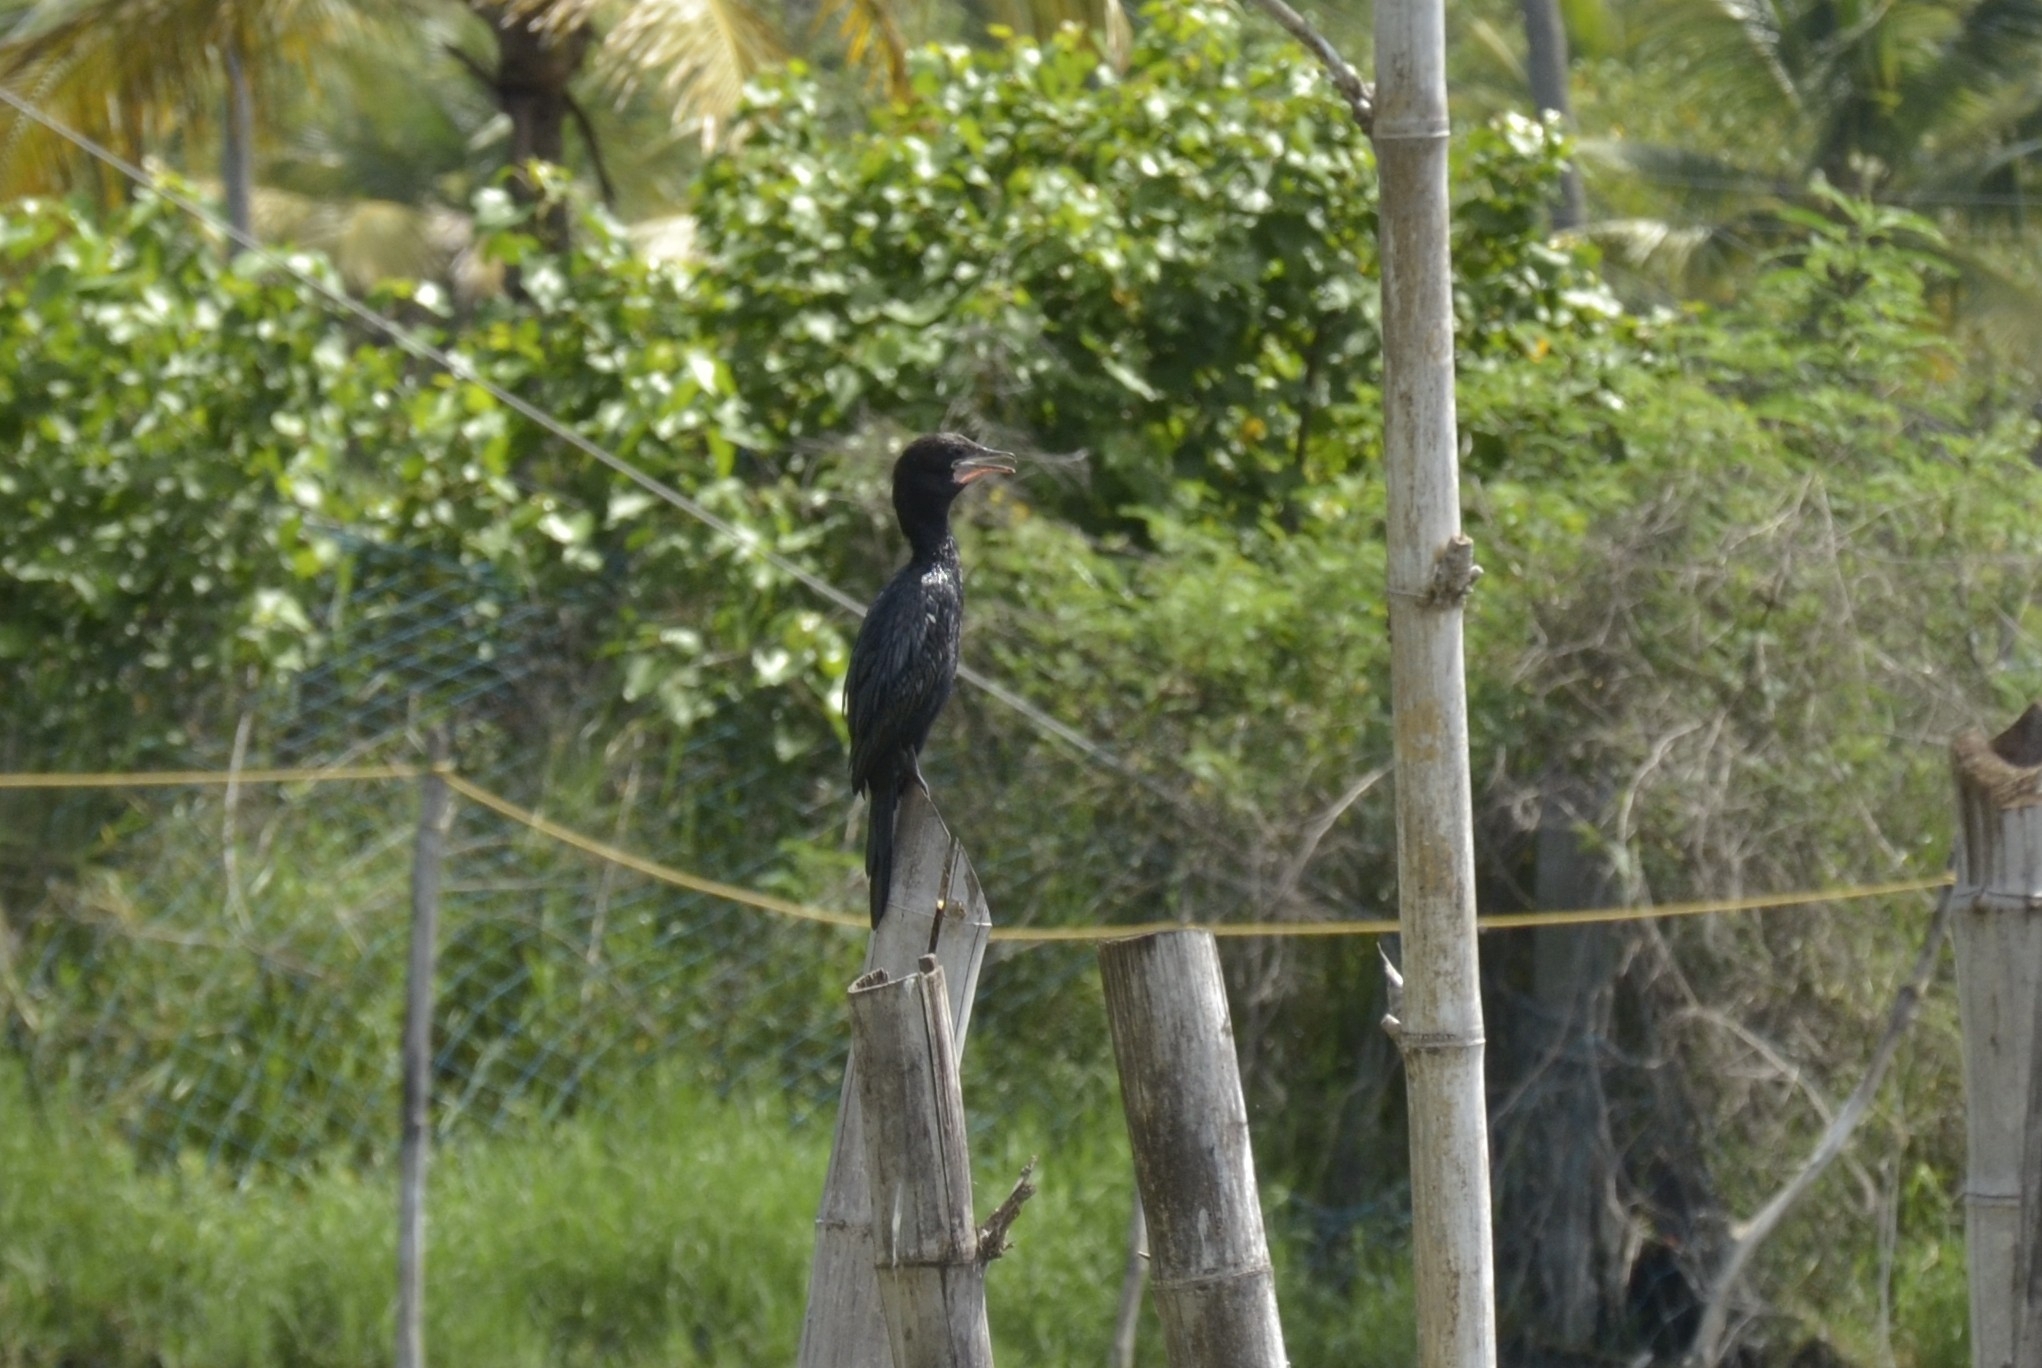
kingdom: Animalia
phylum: Chordata
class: Aves
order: Suliformes
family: Phalacrocoracidae
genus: Microcarbo
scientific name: Microcarbo niger
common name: Little cormorant
